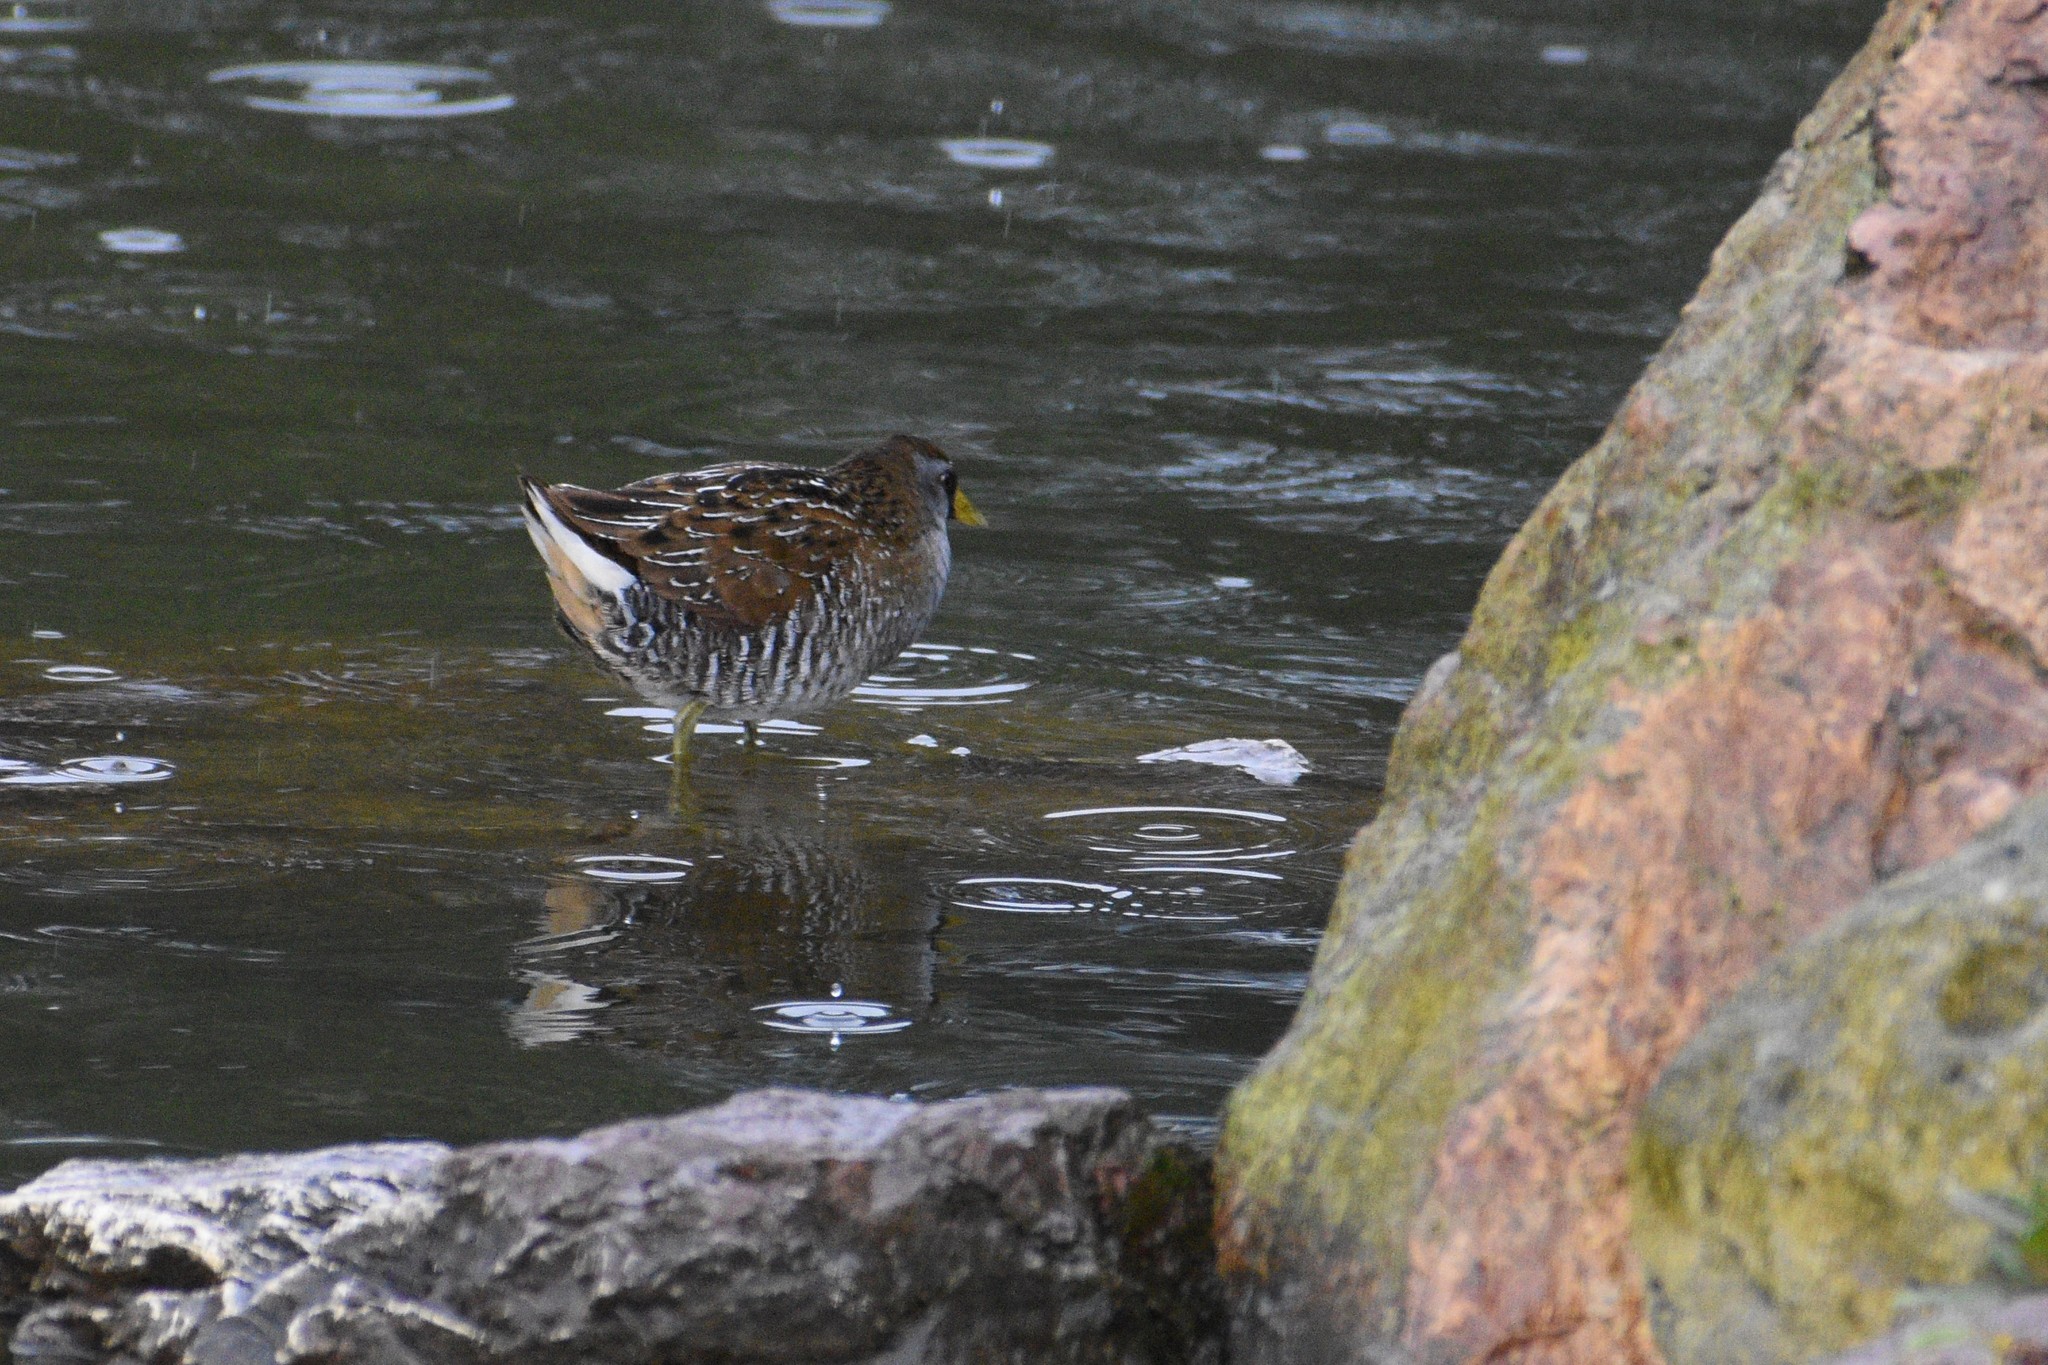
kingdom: Animalia
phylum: Chordata
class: Aves
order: Gruiformes
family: Rallidae
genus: Porzana
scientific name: Porzana carolina
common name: Sora
